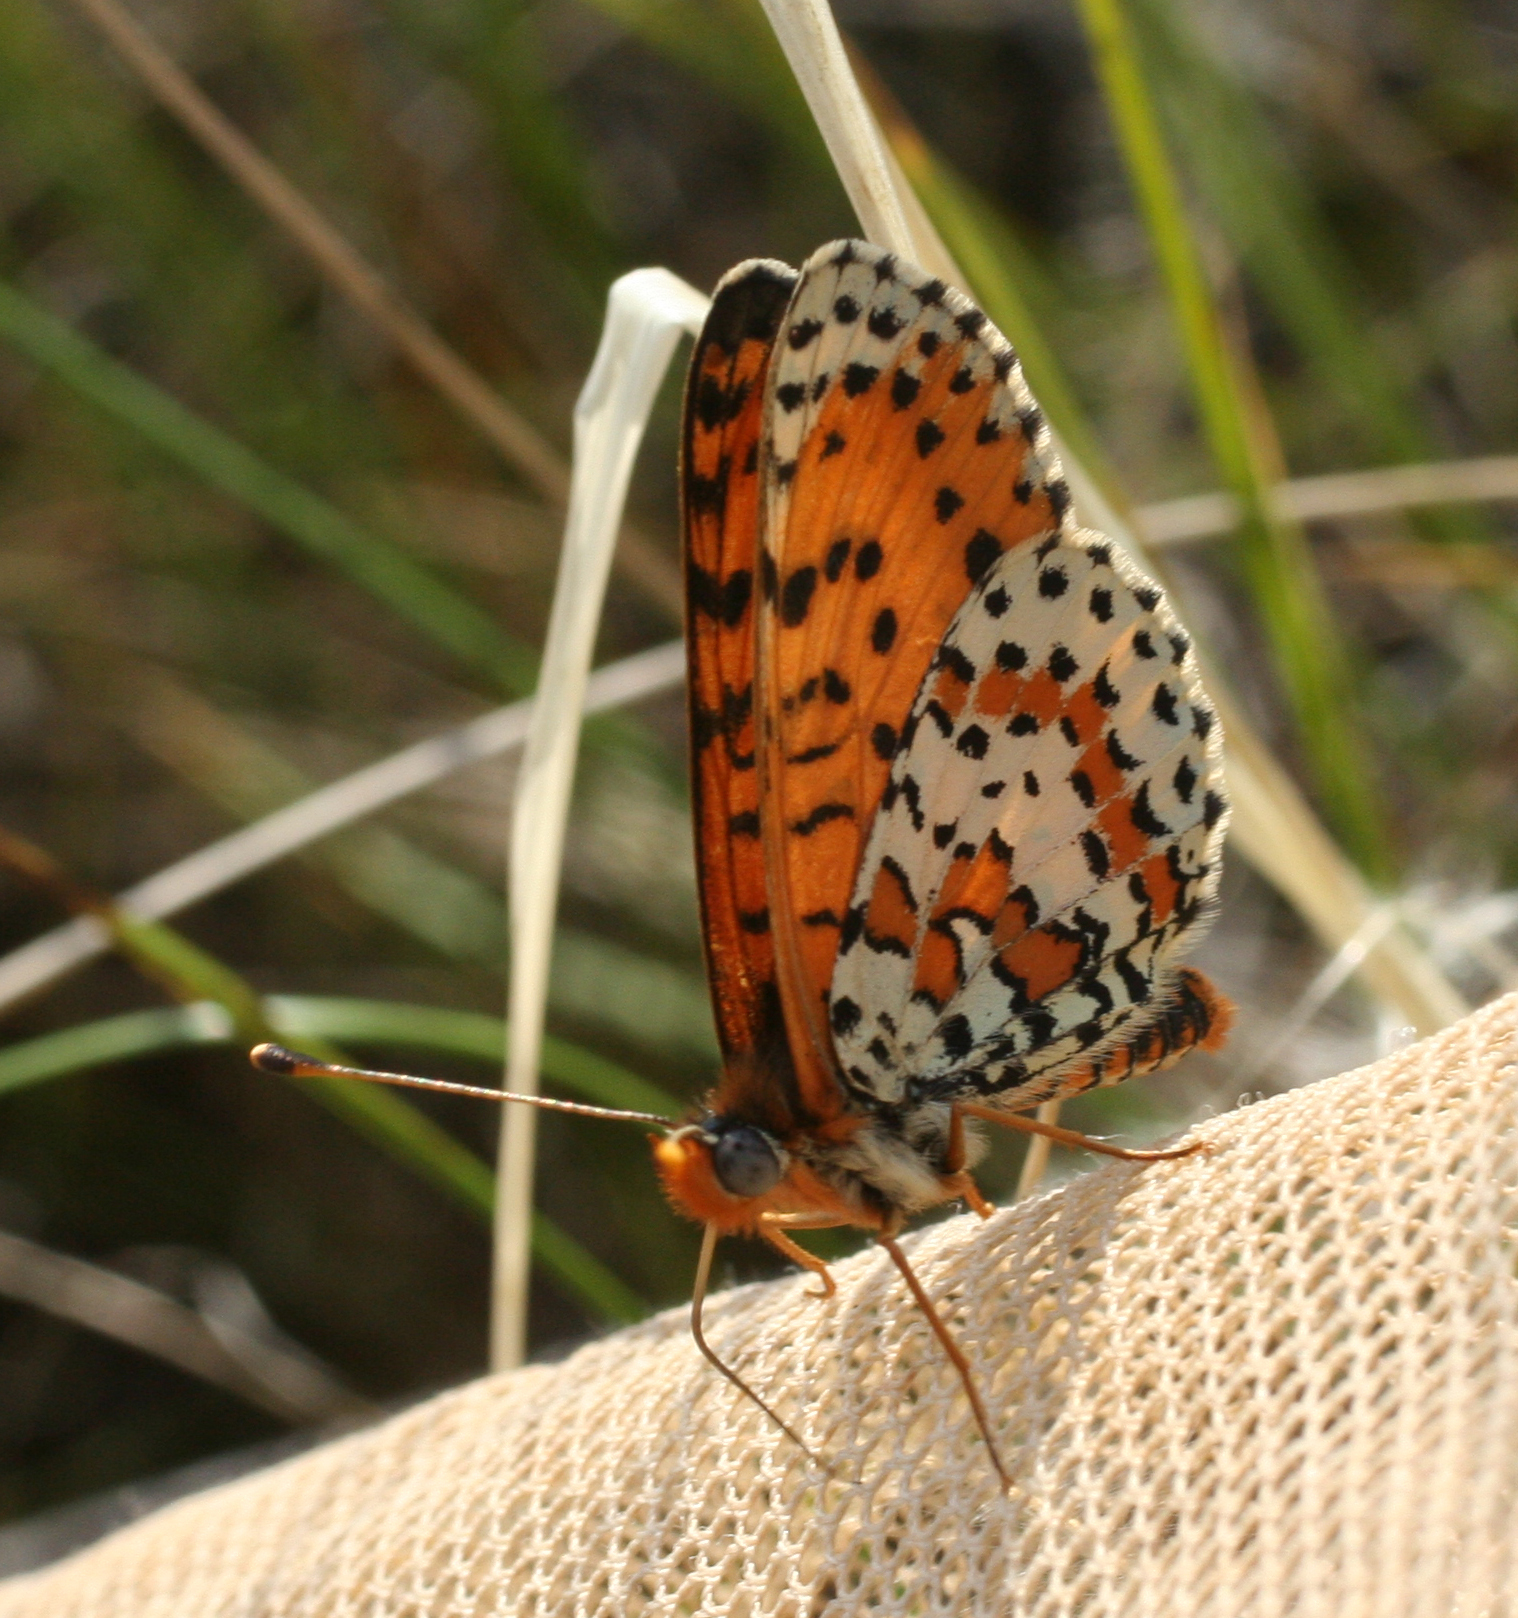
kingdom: Animalia
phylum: Arthropoda
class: Insecta
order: Lepidoptera
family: Nymphalidae
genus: Melitaea
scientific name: Melitaea didyma
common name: Spotted fritillary
